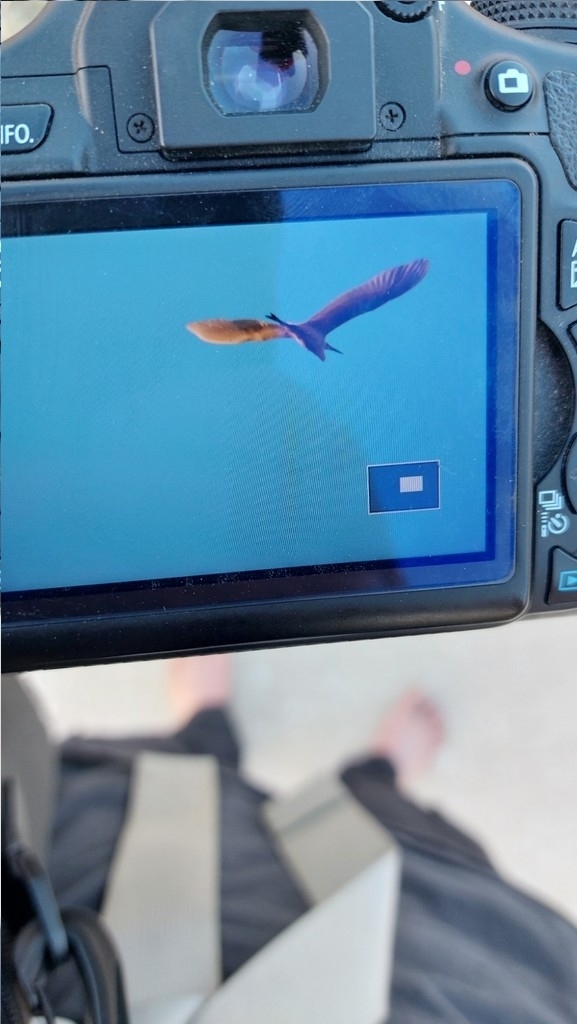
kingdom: Animalia
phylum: Chordata
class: Aves
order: Pelecaniformes
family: Ardeidae
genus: Ardea
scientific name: Ardea alba
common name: Great egret
